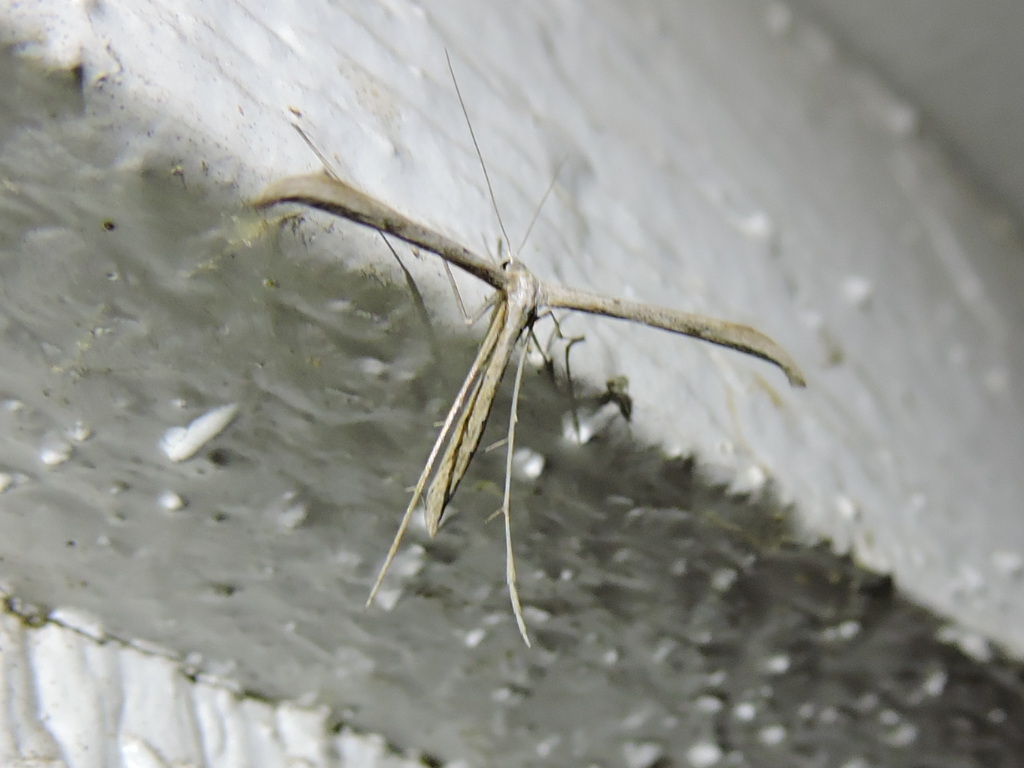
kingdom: Animalia
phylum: Arthropoda
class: Insecta
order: Lepidoptera
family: Pterophoridae
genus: Emmelina
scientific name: Emmelina monodactyla
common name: Common plume
